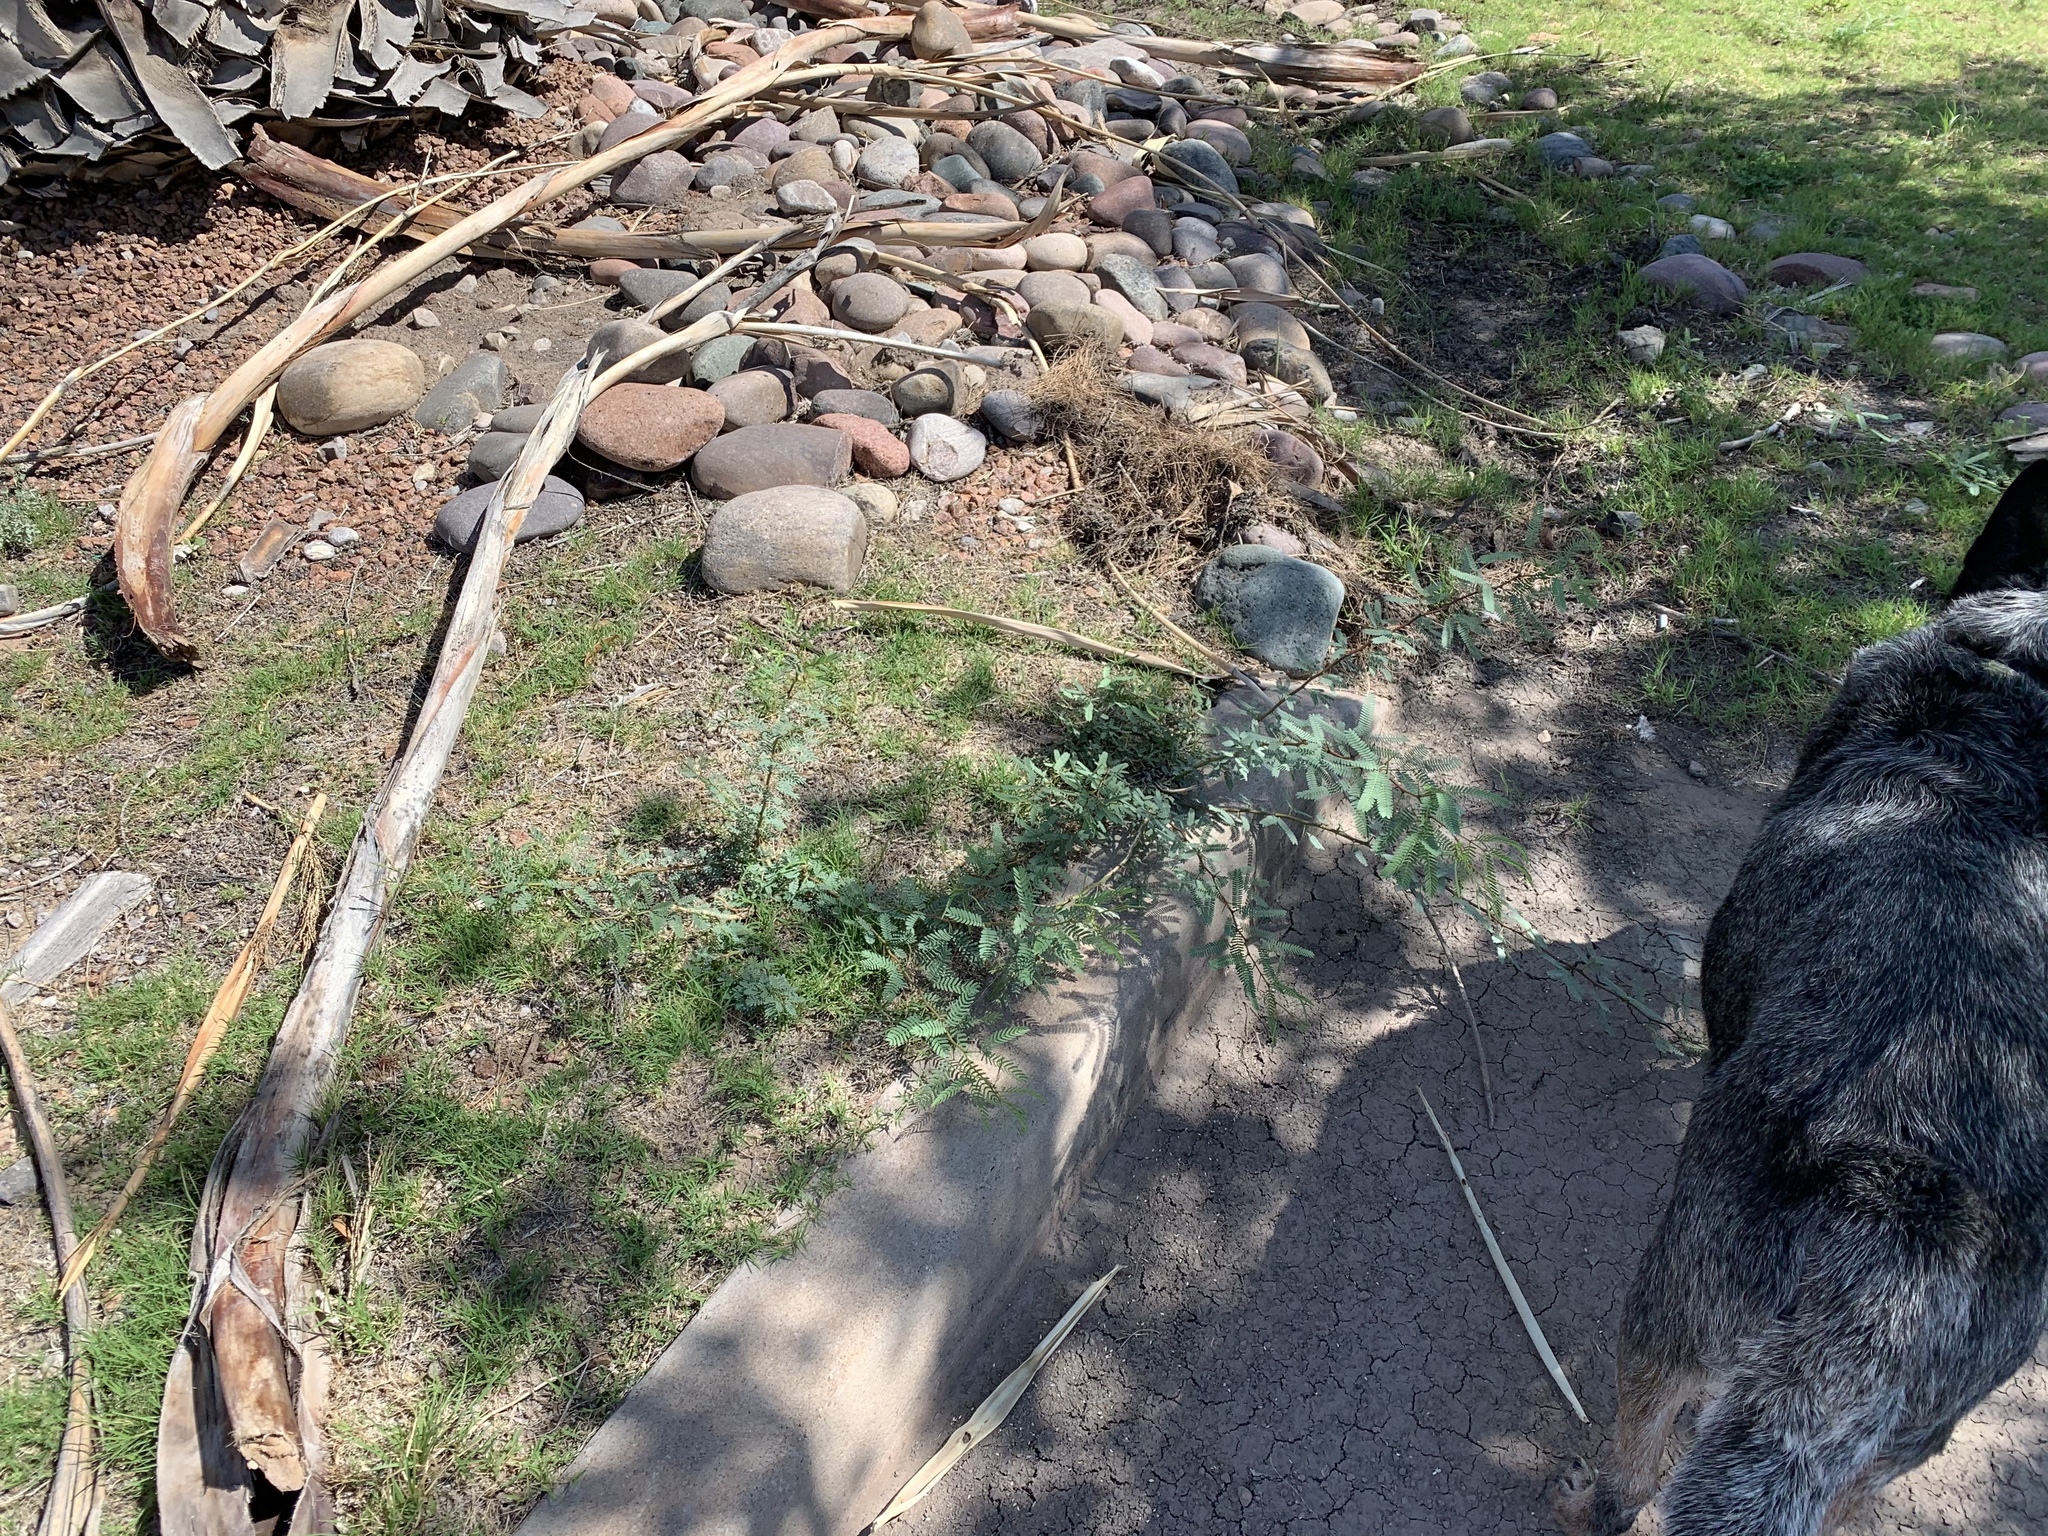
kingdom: Plantae
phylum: Tracheophyta
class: Magnoliopsida
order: Fabales
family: Fabaceae
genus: Prosopis
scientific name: Prosopis glandulosa
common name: Honey mesquite
